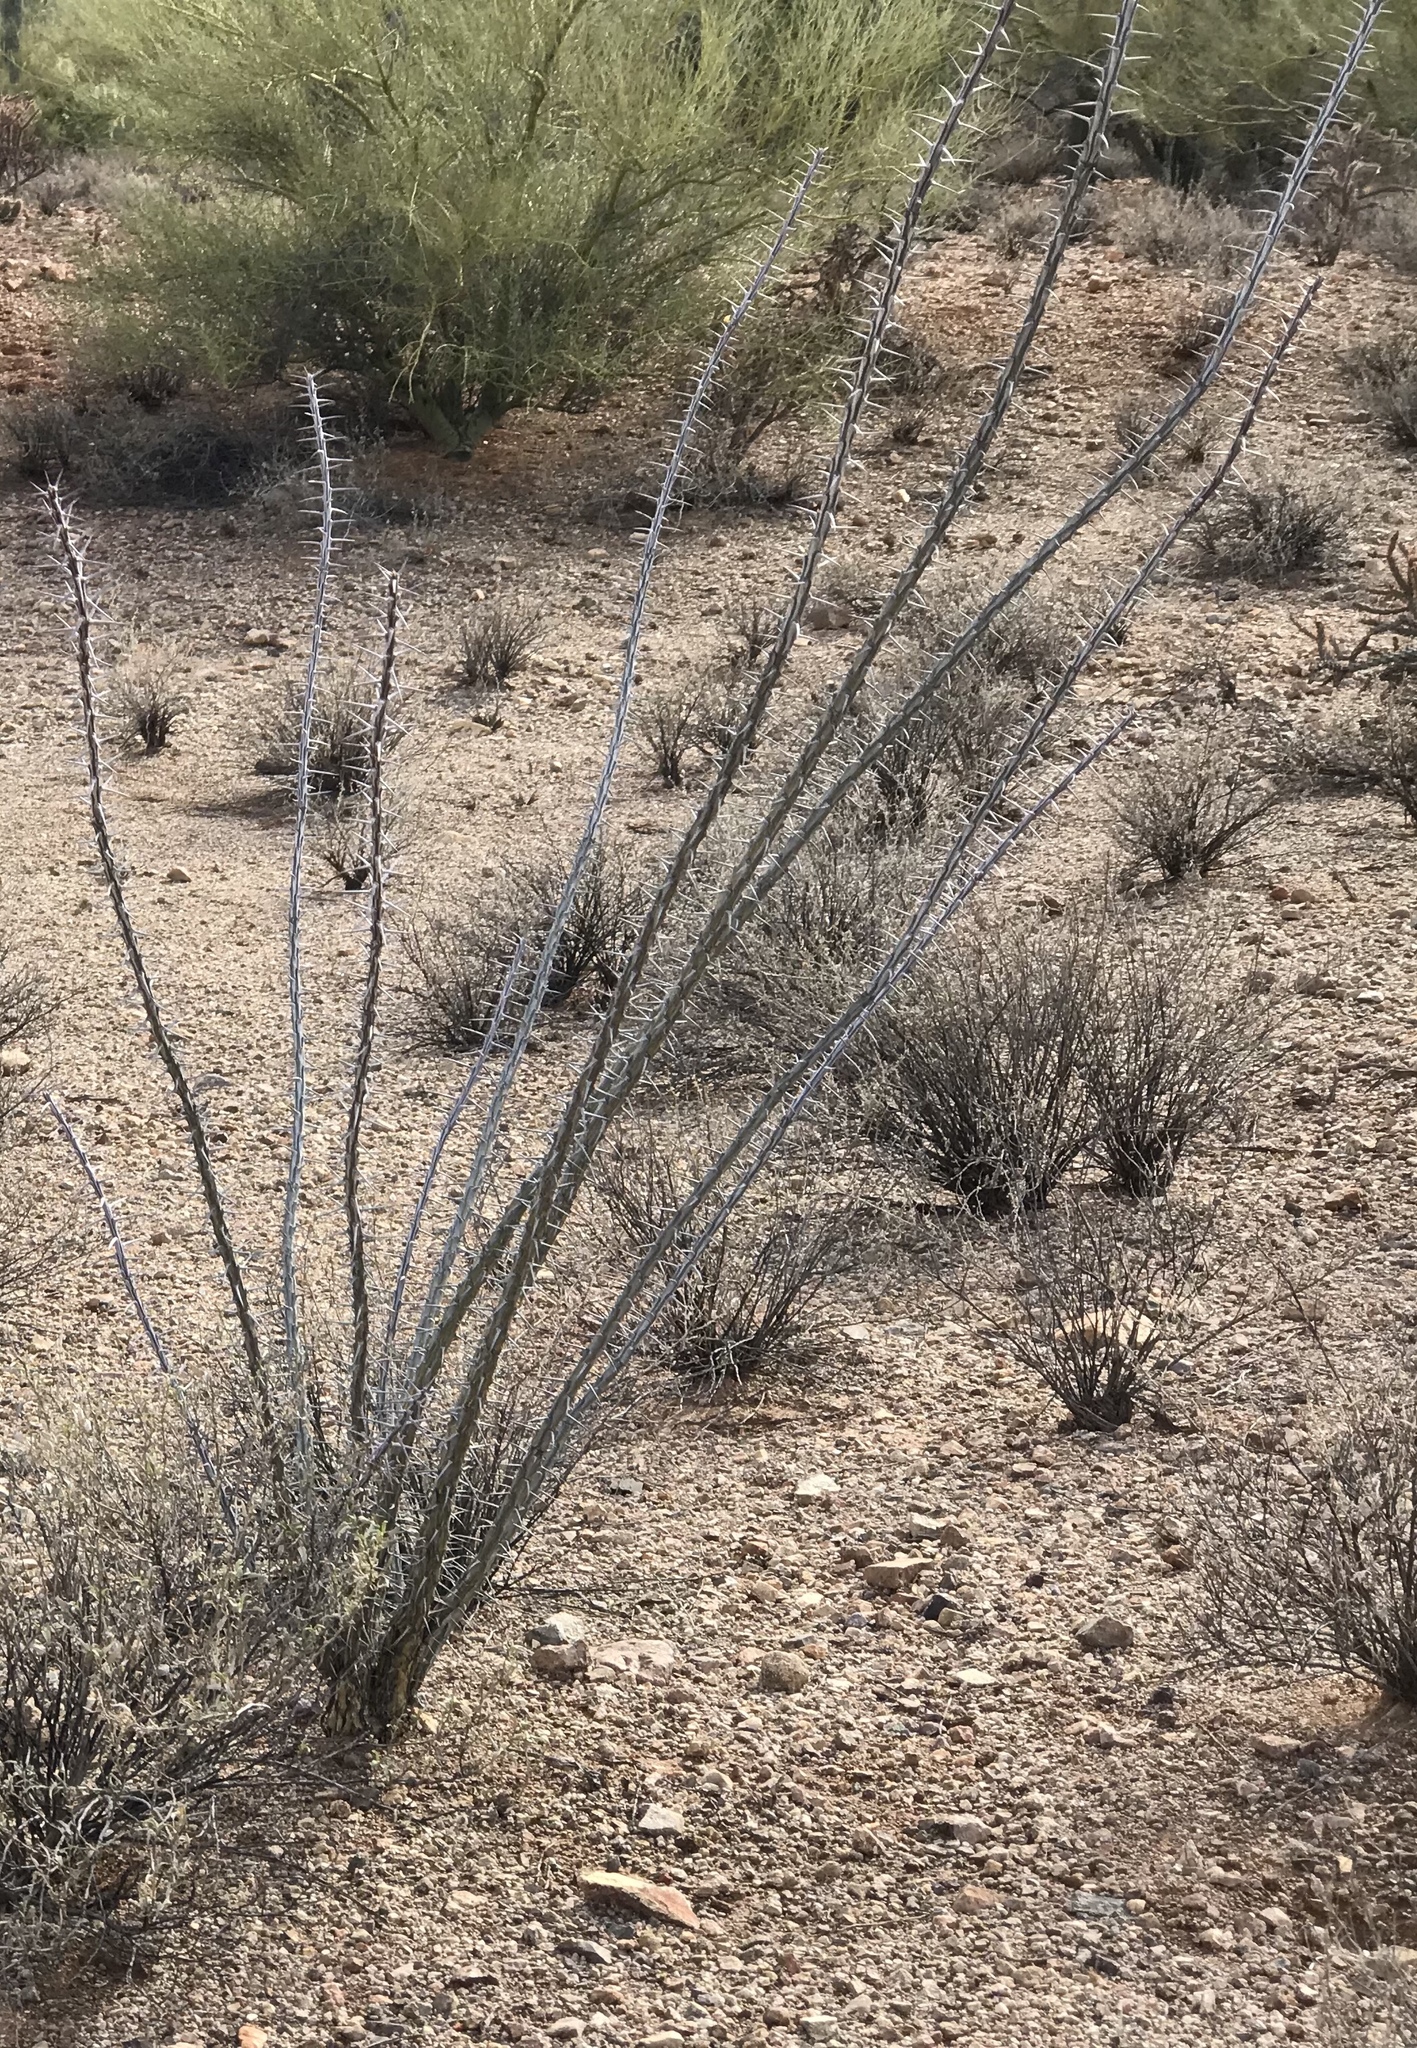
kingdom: Plantae
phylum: Tracheophyta
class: Magnoliopsida
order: Ericales
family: Fouquieriaceae
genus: Fouquieria
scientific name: Fouquieria splendens
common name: Vine-cactus
